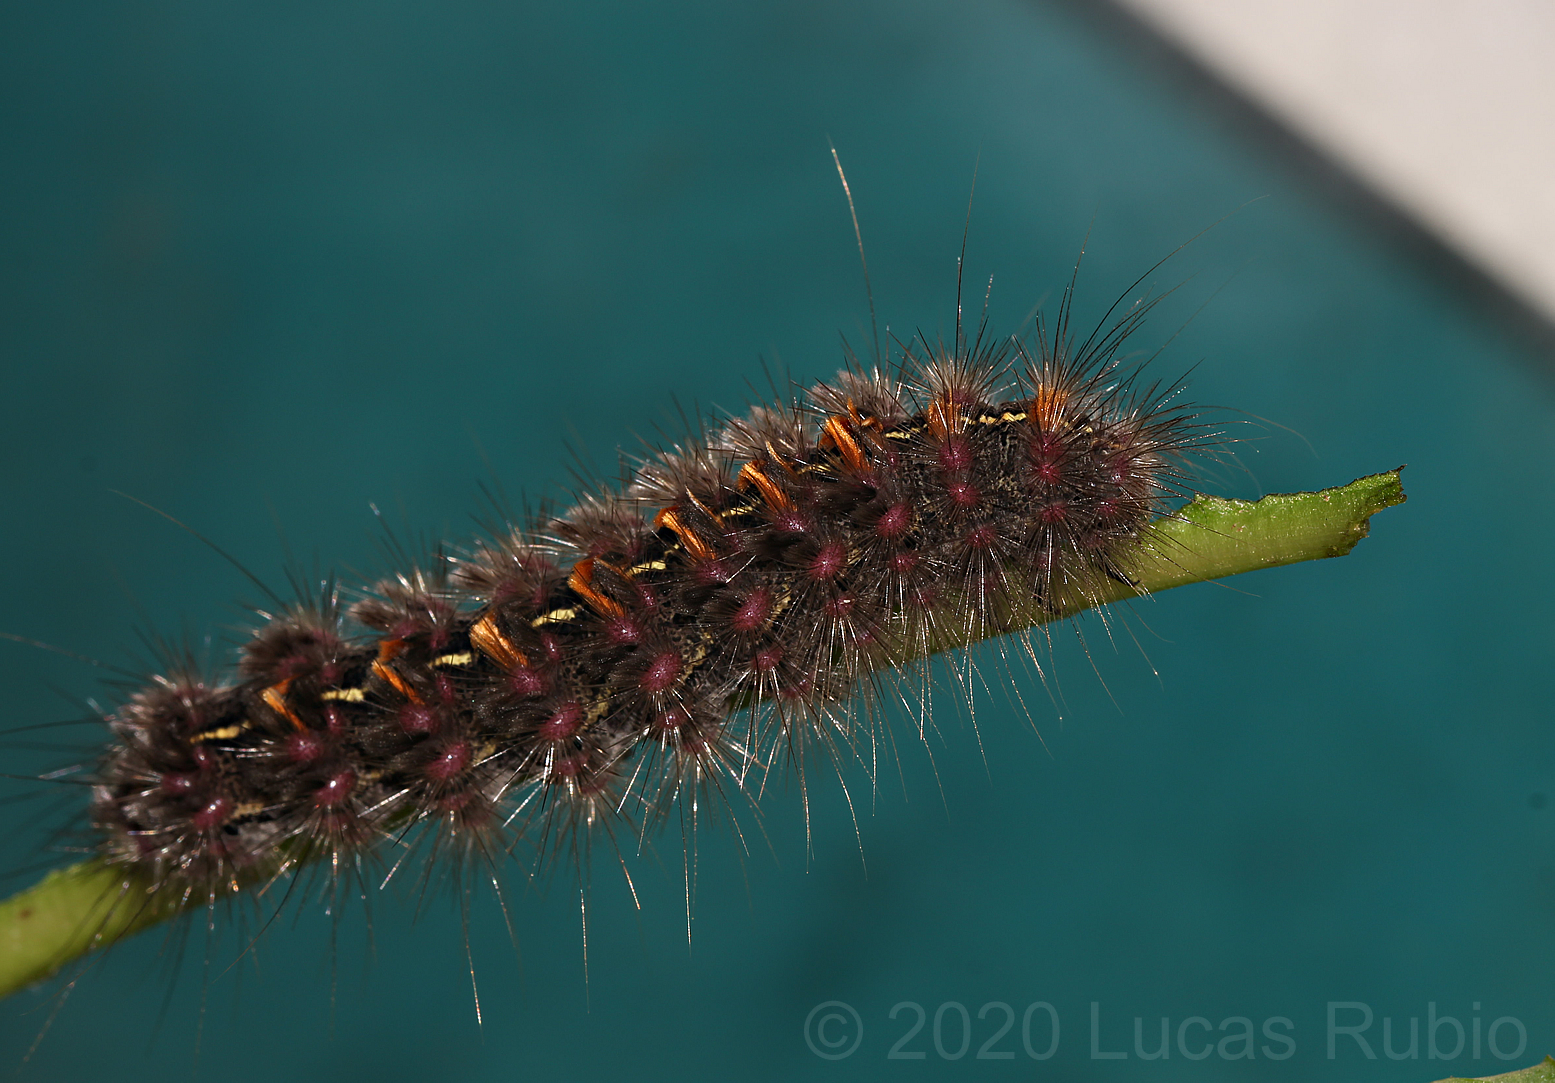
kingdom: Animalia
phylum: Arthropoda
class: Insecta
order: Lepidoptera
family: Erebidae
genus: Paracles
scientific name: Paracles fusca
